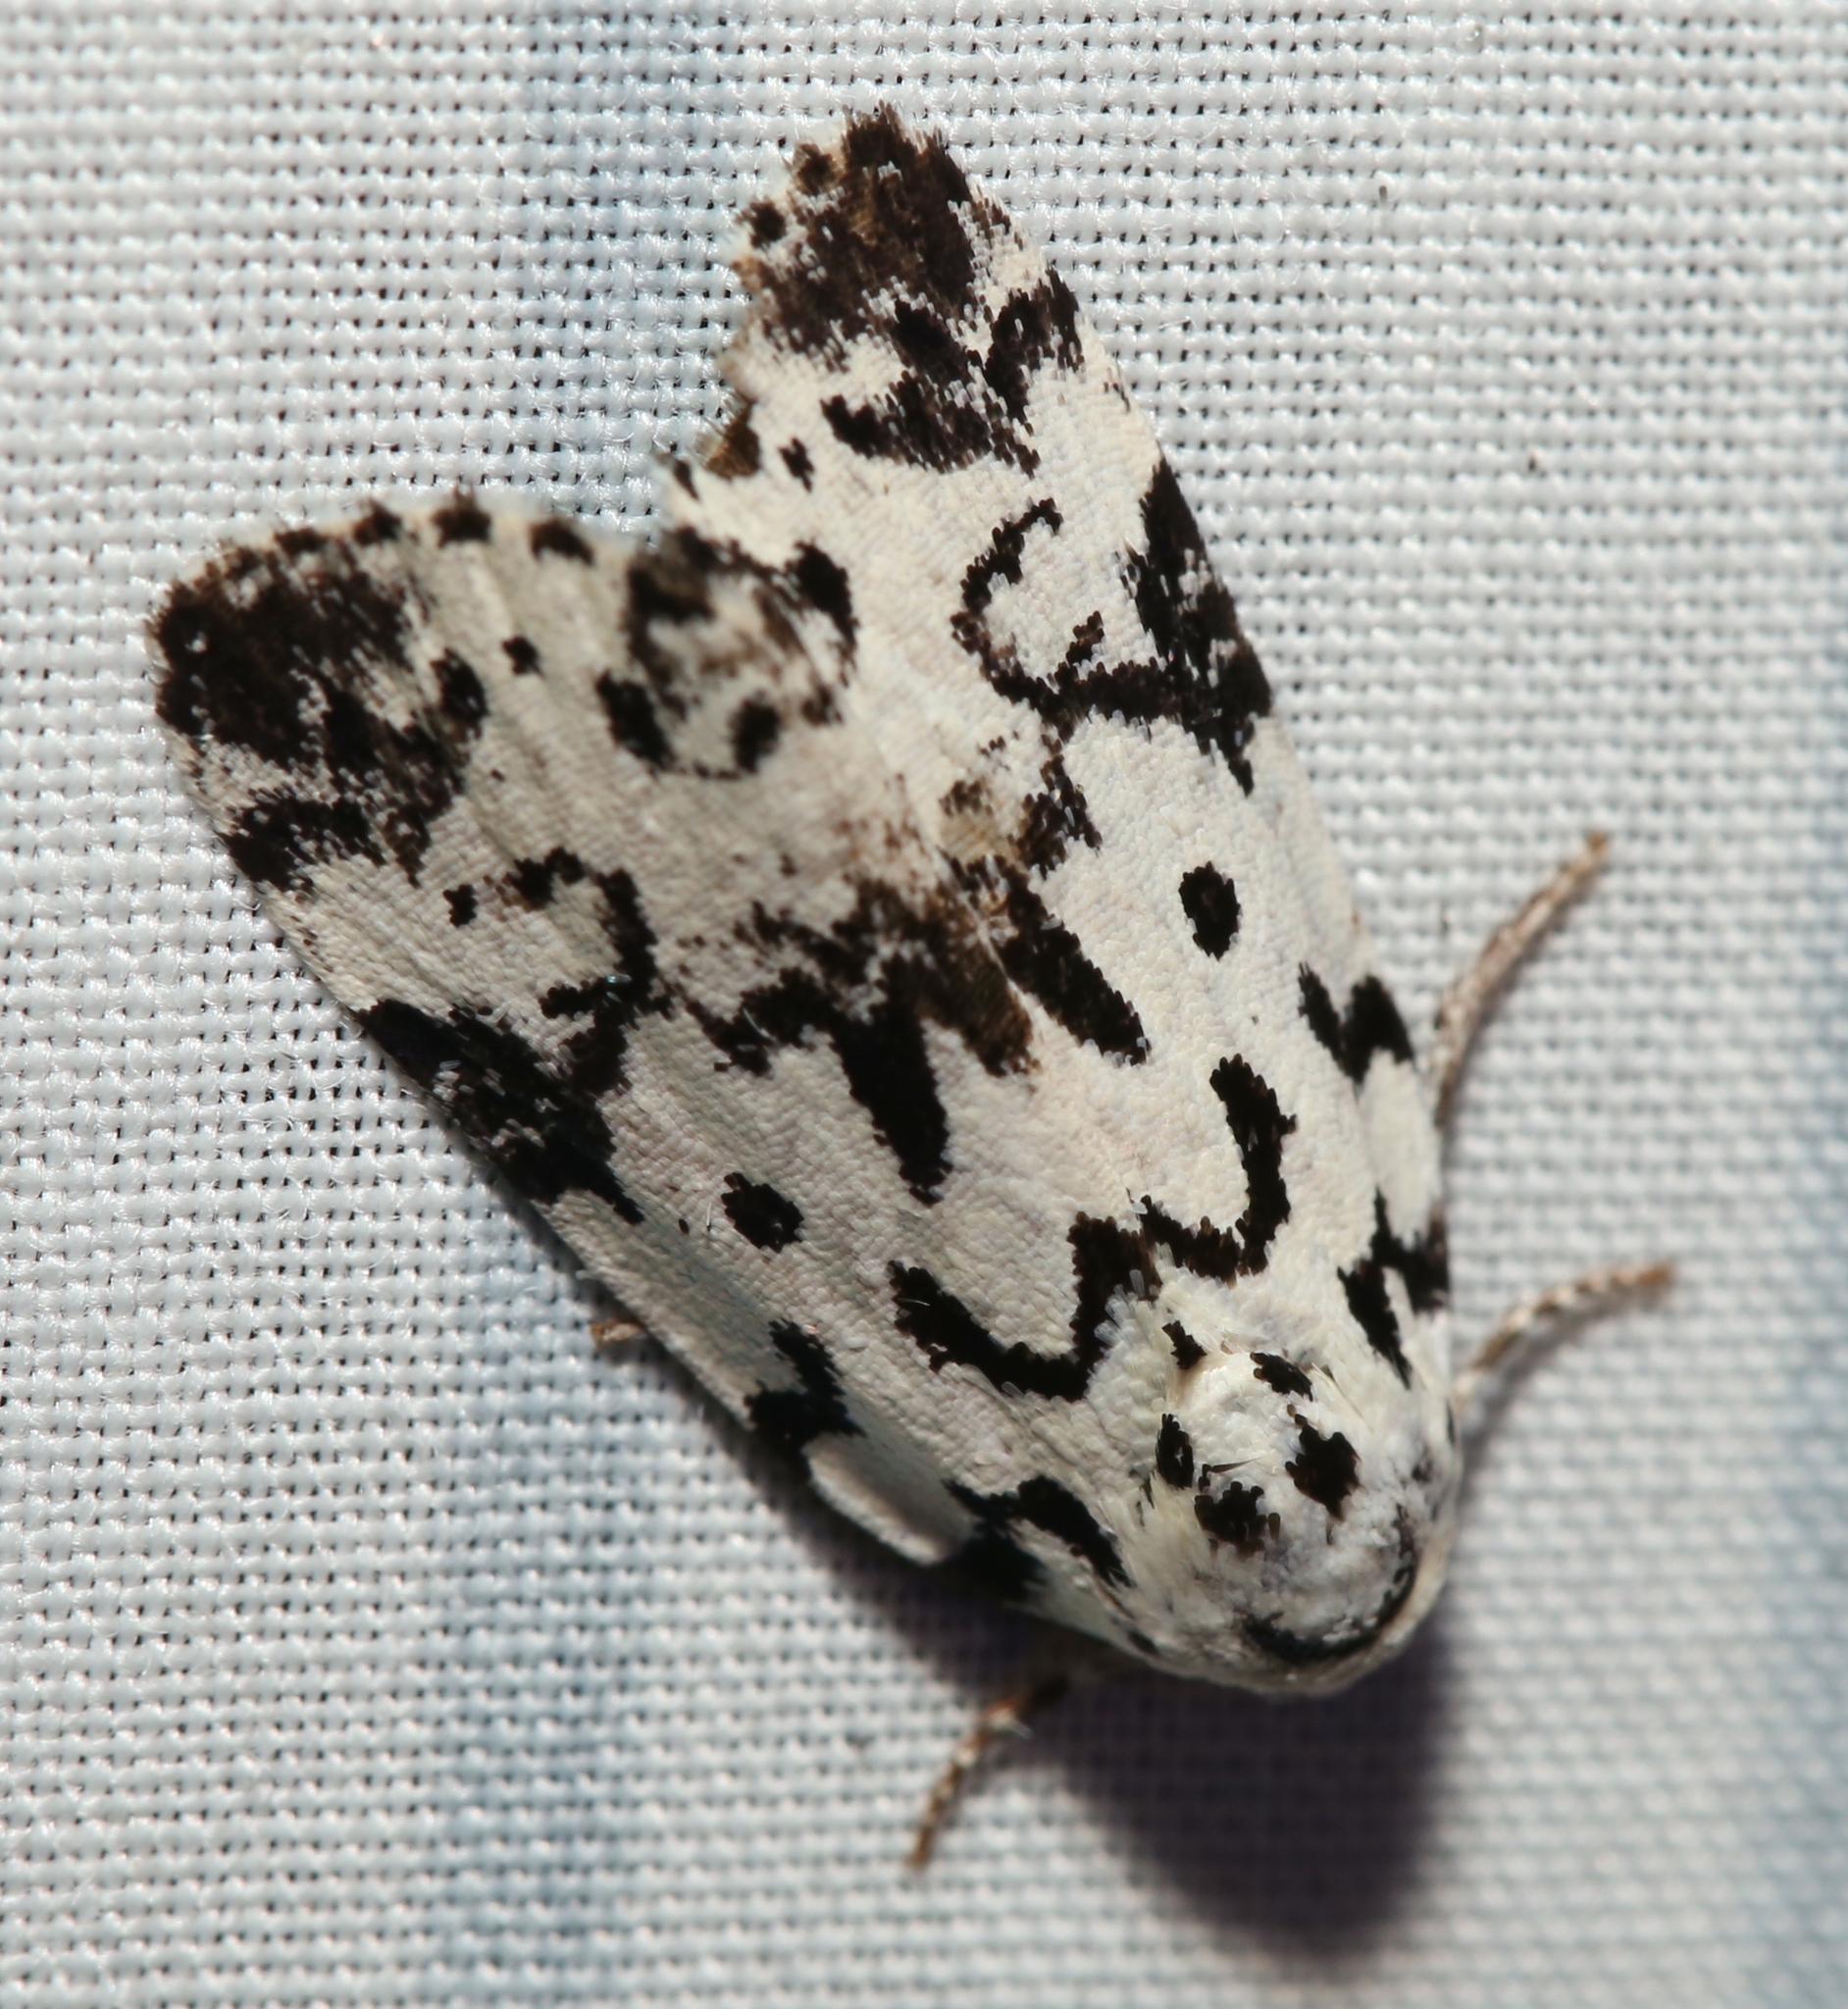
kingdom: Animalia
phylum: Arthropoda
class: Insecta
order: Lepidoptera
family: Noctuidae
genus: Polygrammate
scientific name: Polygrammate hebraeicum
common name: Hebrew moth
